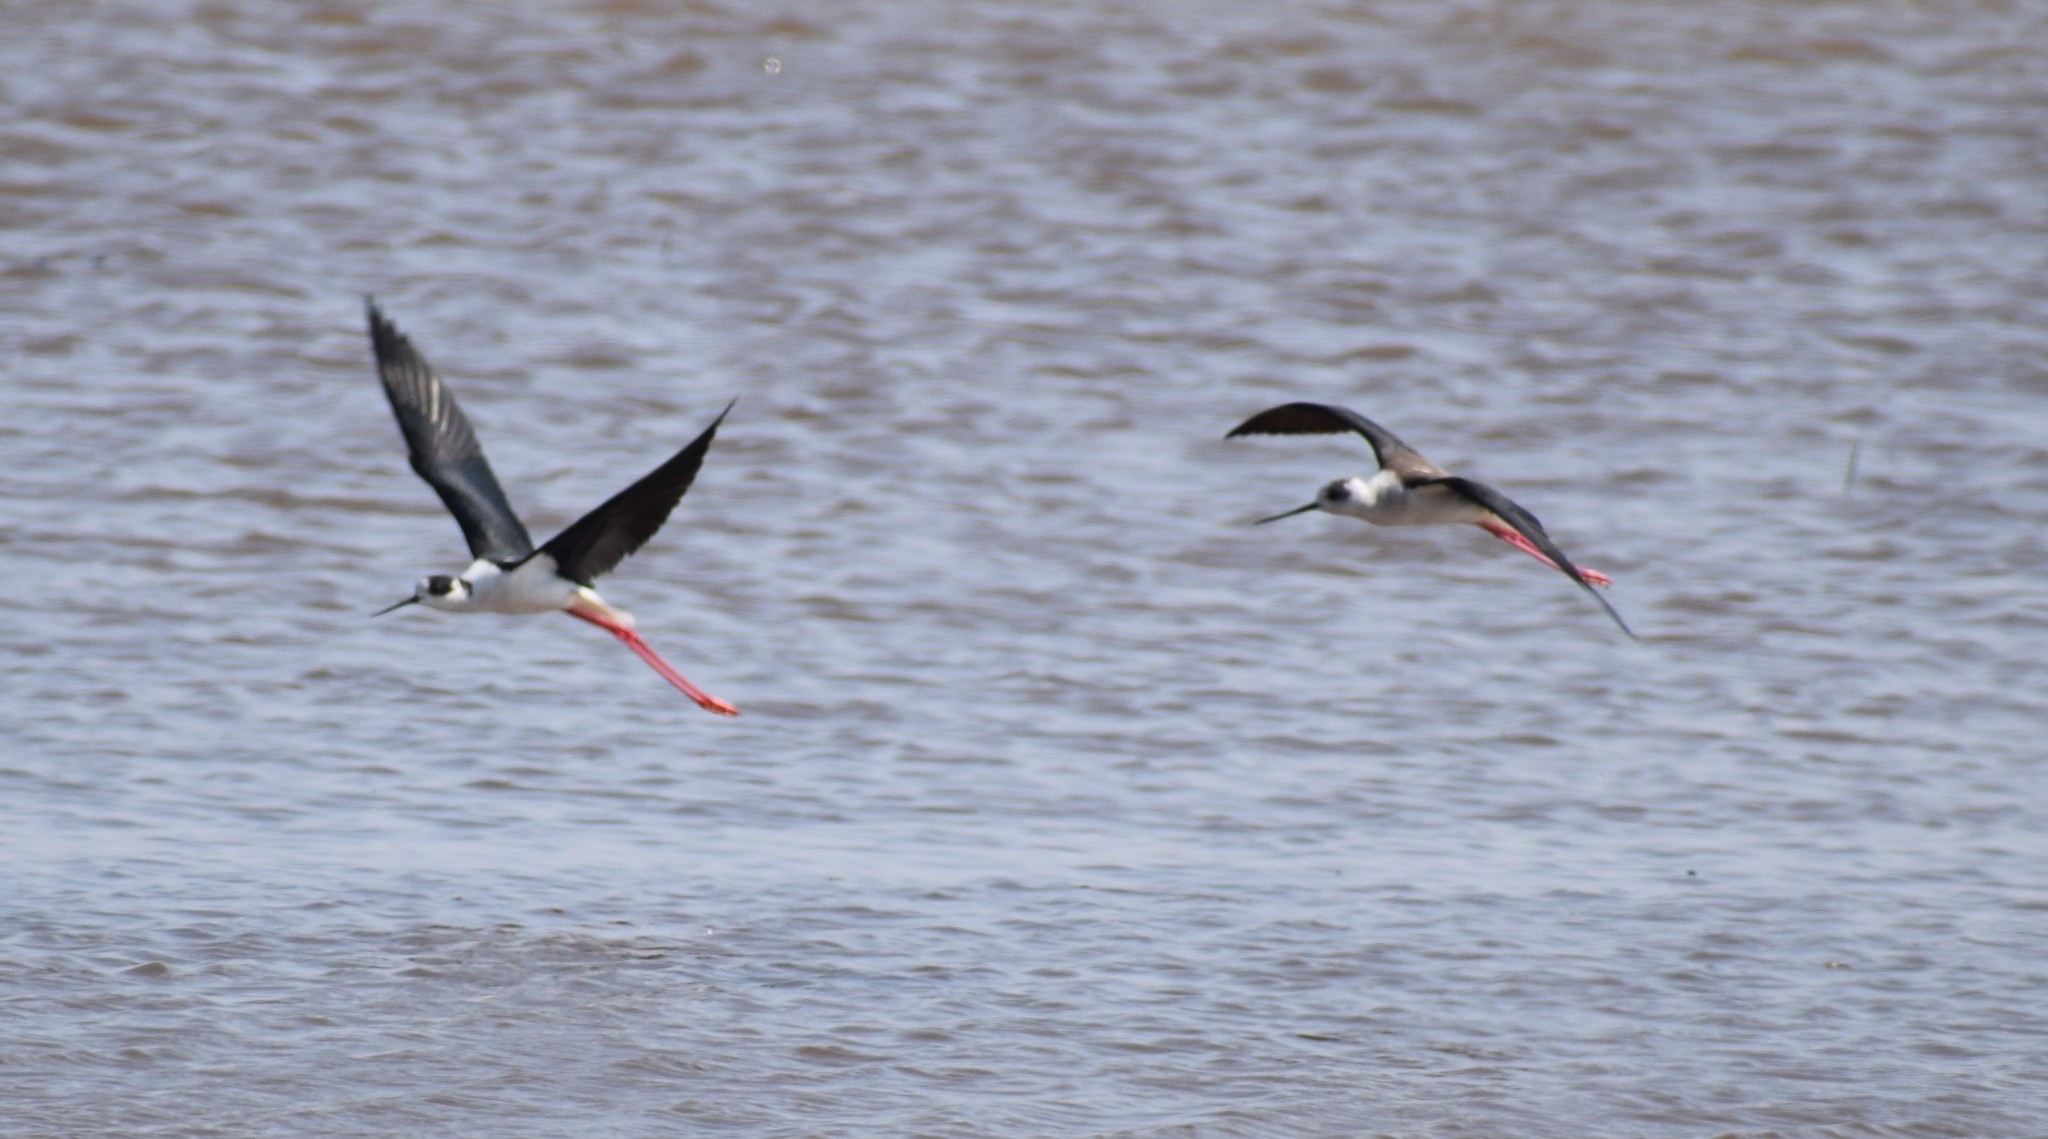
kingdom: Animalia
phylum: Chordata
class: Aves
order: Charadriiformes
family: Recurvirostridae
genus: Himantopus
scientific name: Himantopus himantopus
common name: Black-winged stilt
